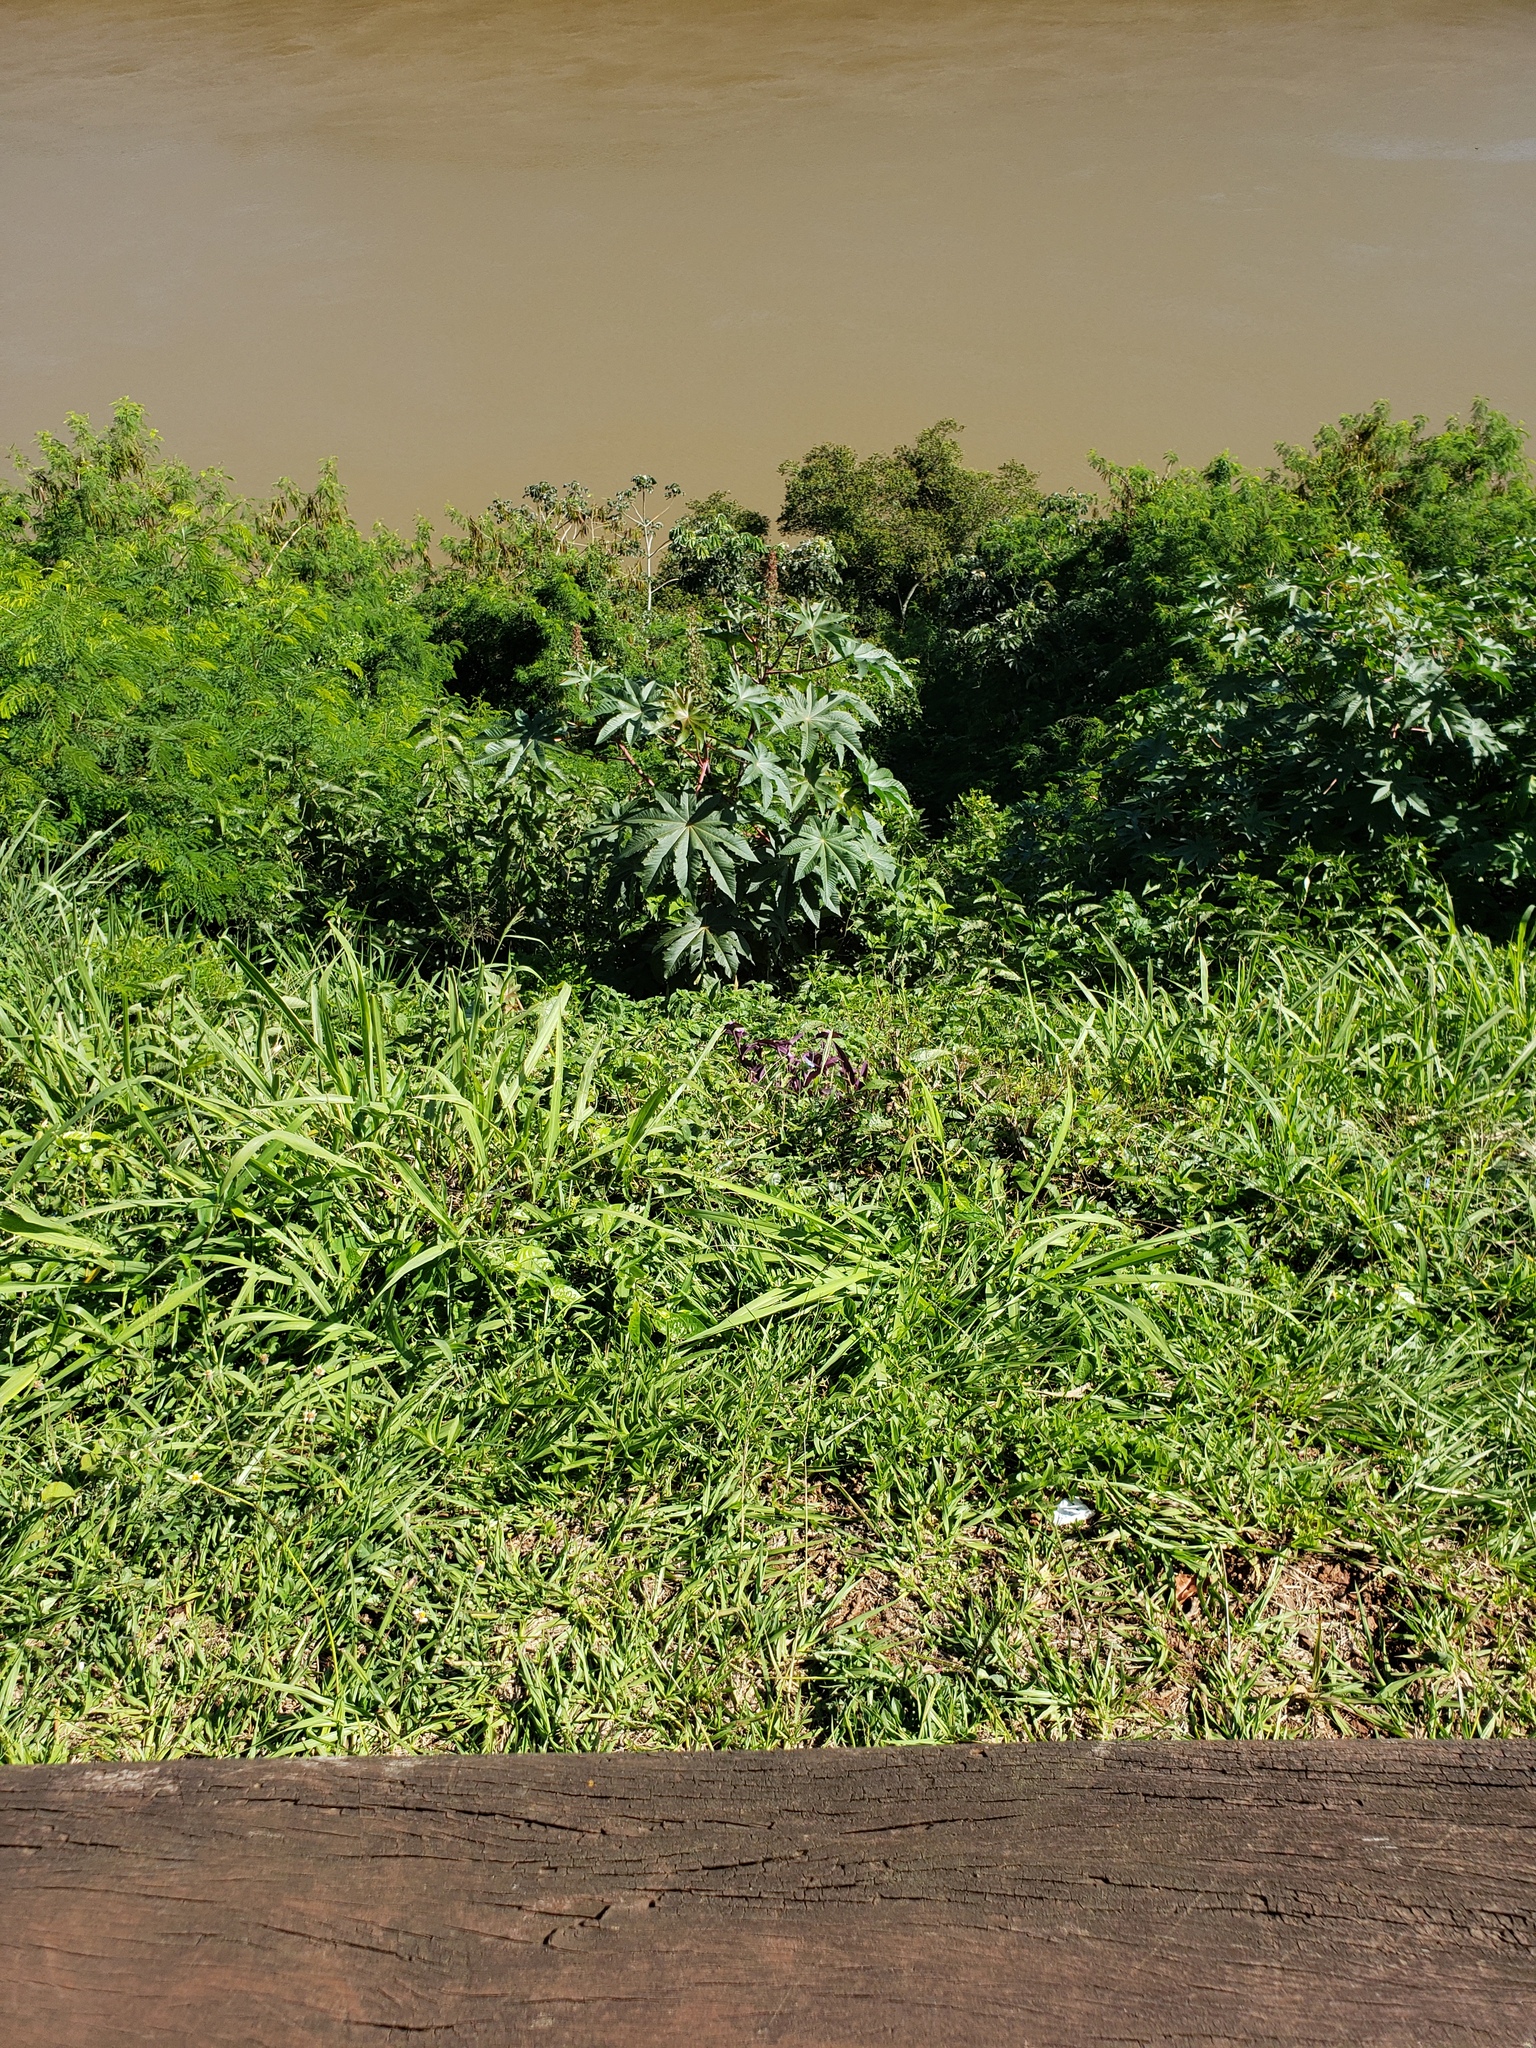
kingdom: Plantae
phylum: Tracheophyta
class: Magnoliopsida
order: Malpighiales
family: Euphorbiaceae
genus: Ricinus
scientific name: Ricinus communis
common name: Castor-oil-plant
